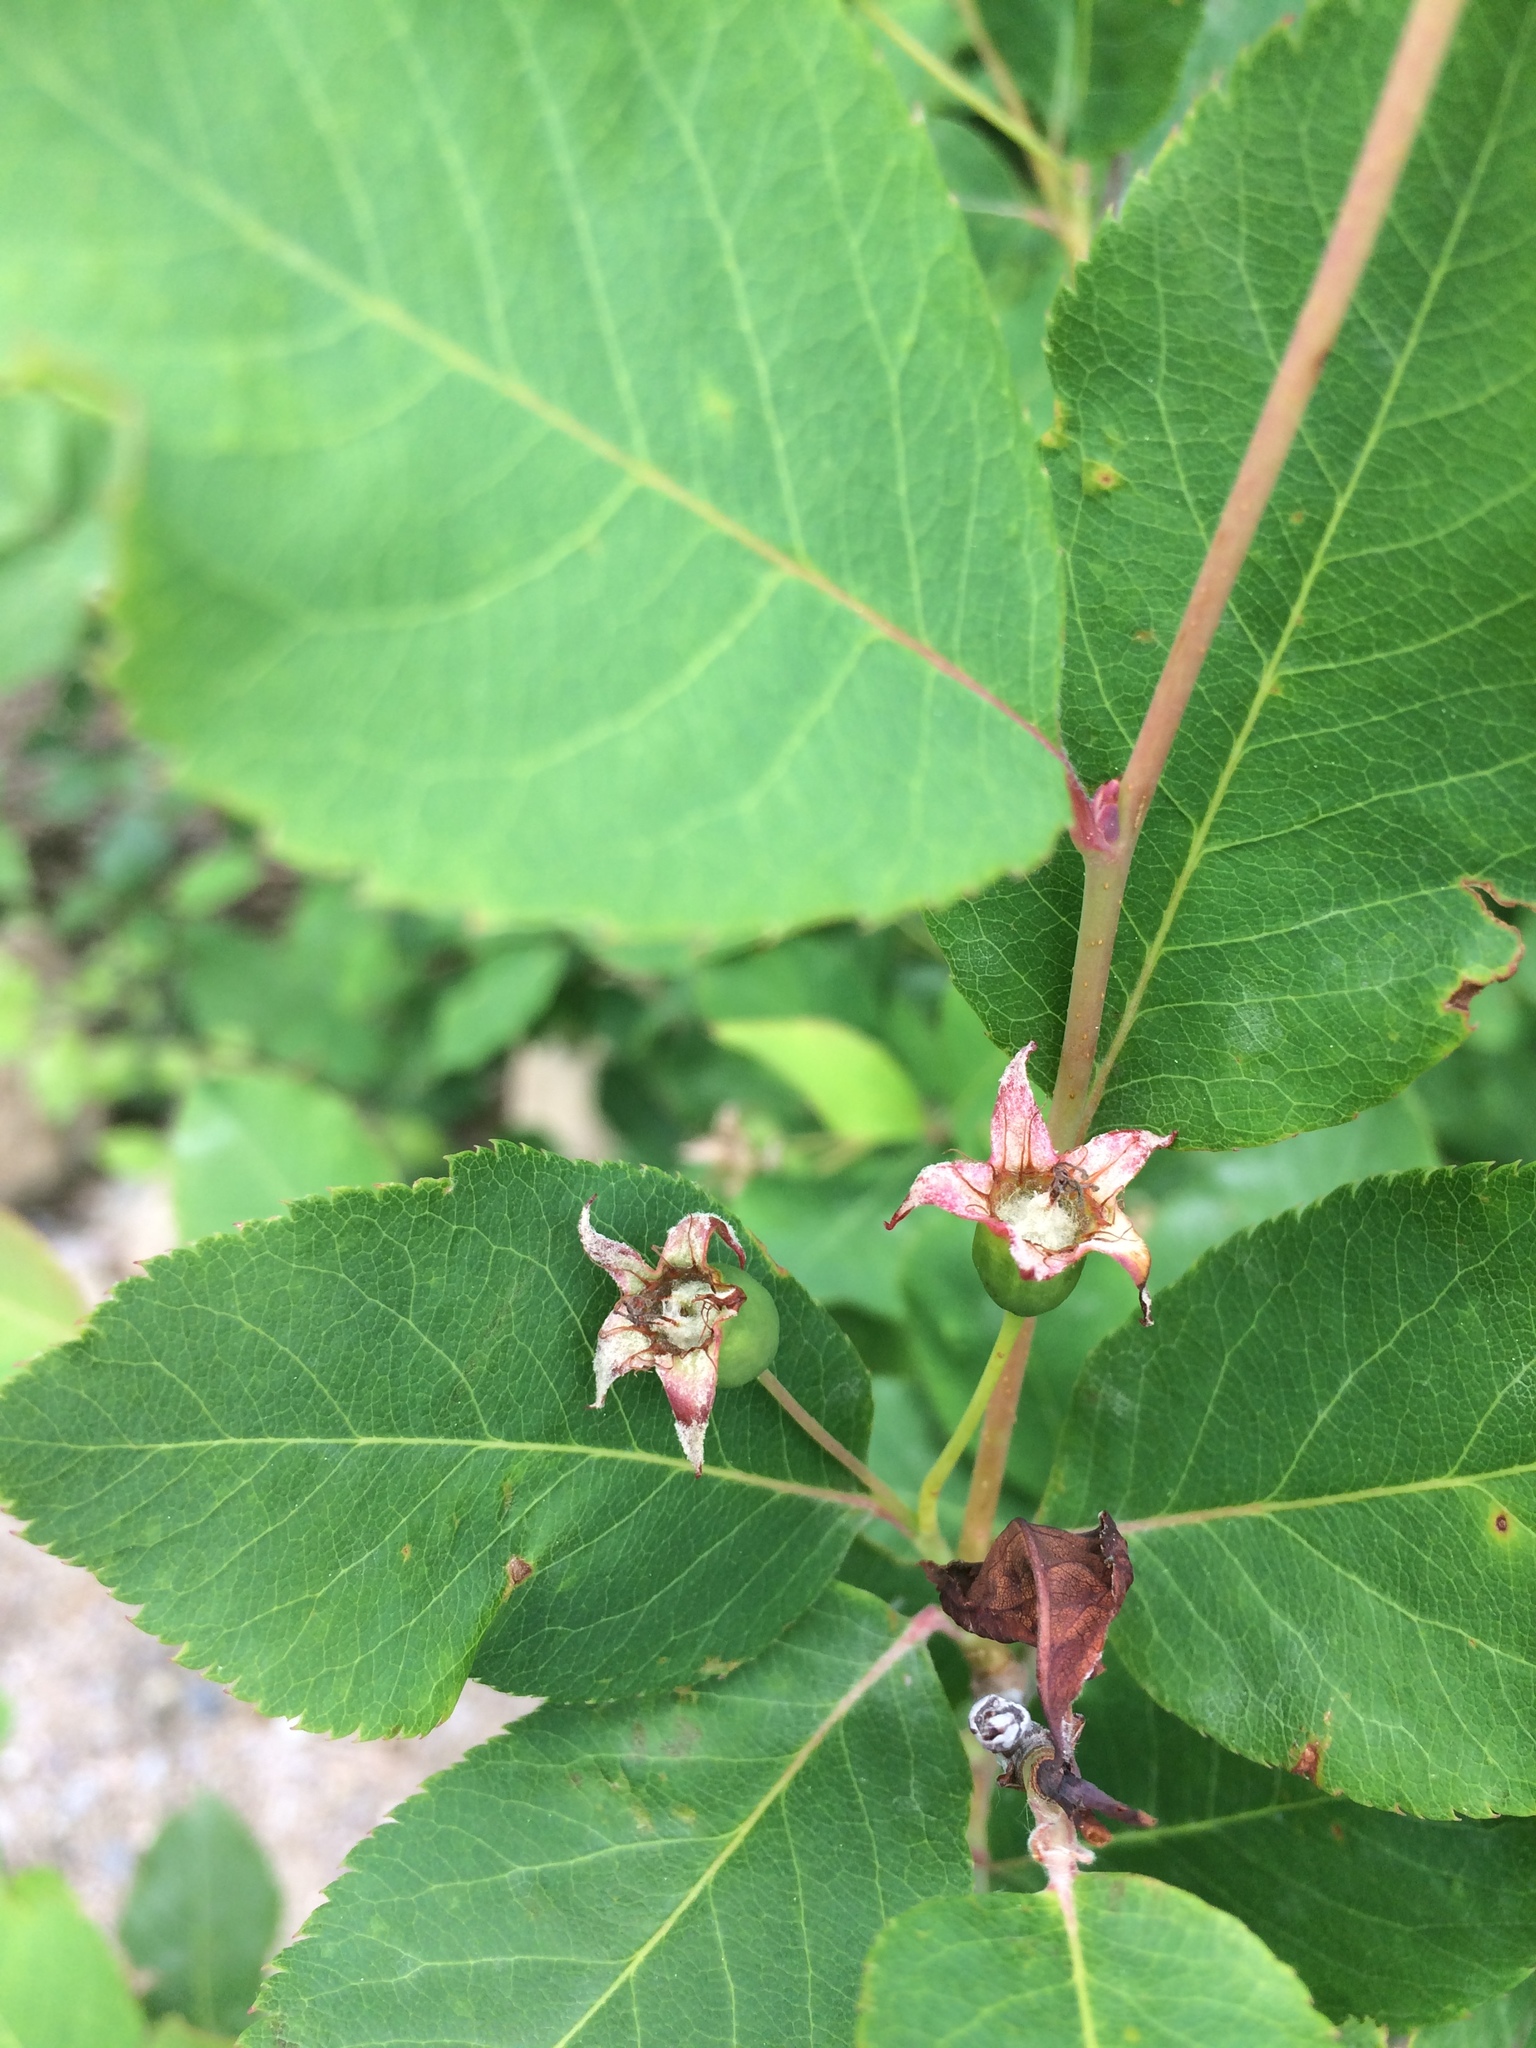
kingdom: Plantae
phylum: Tracheophyta
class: Magnoliopsida
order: Rosales
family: Rosaceae
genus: Amelanchier
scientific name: Amelanchier bartramiana
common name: Mountain serviceberry
